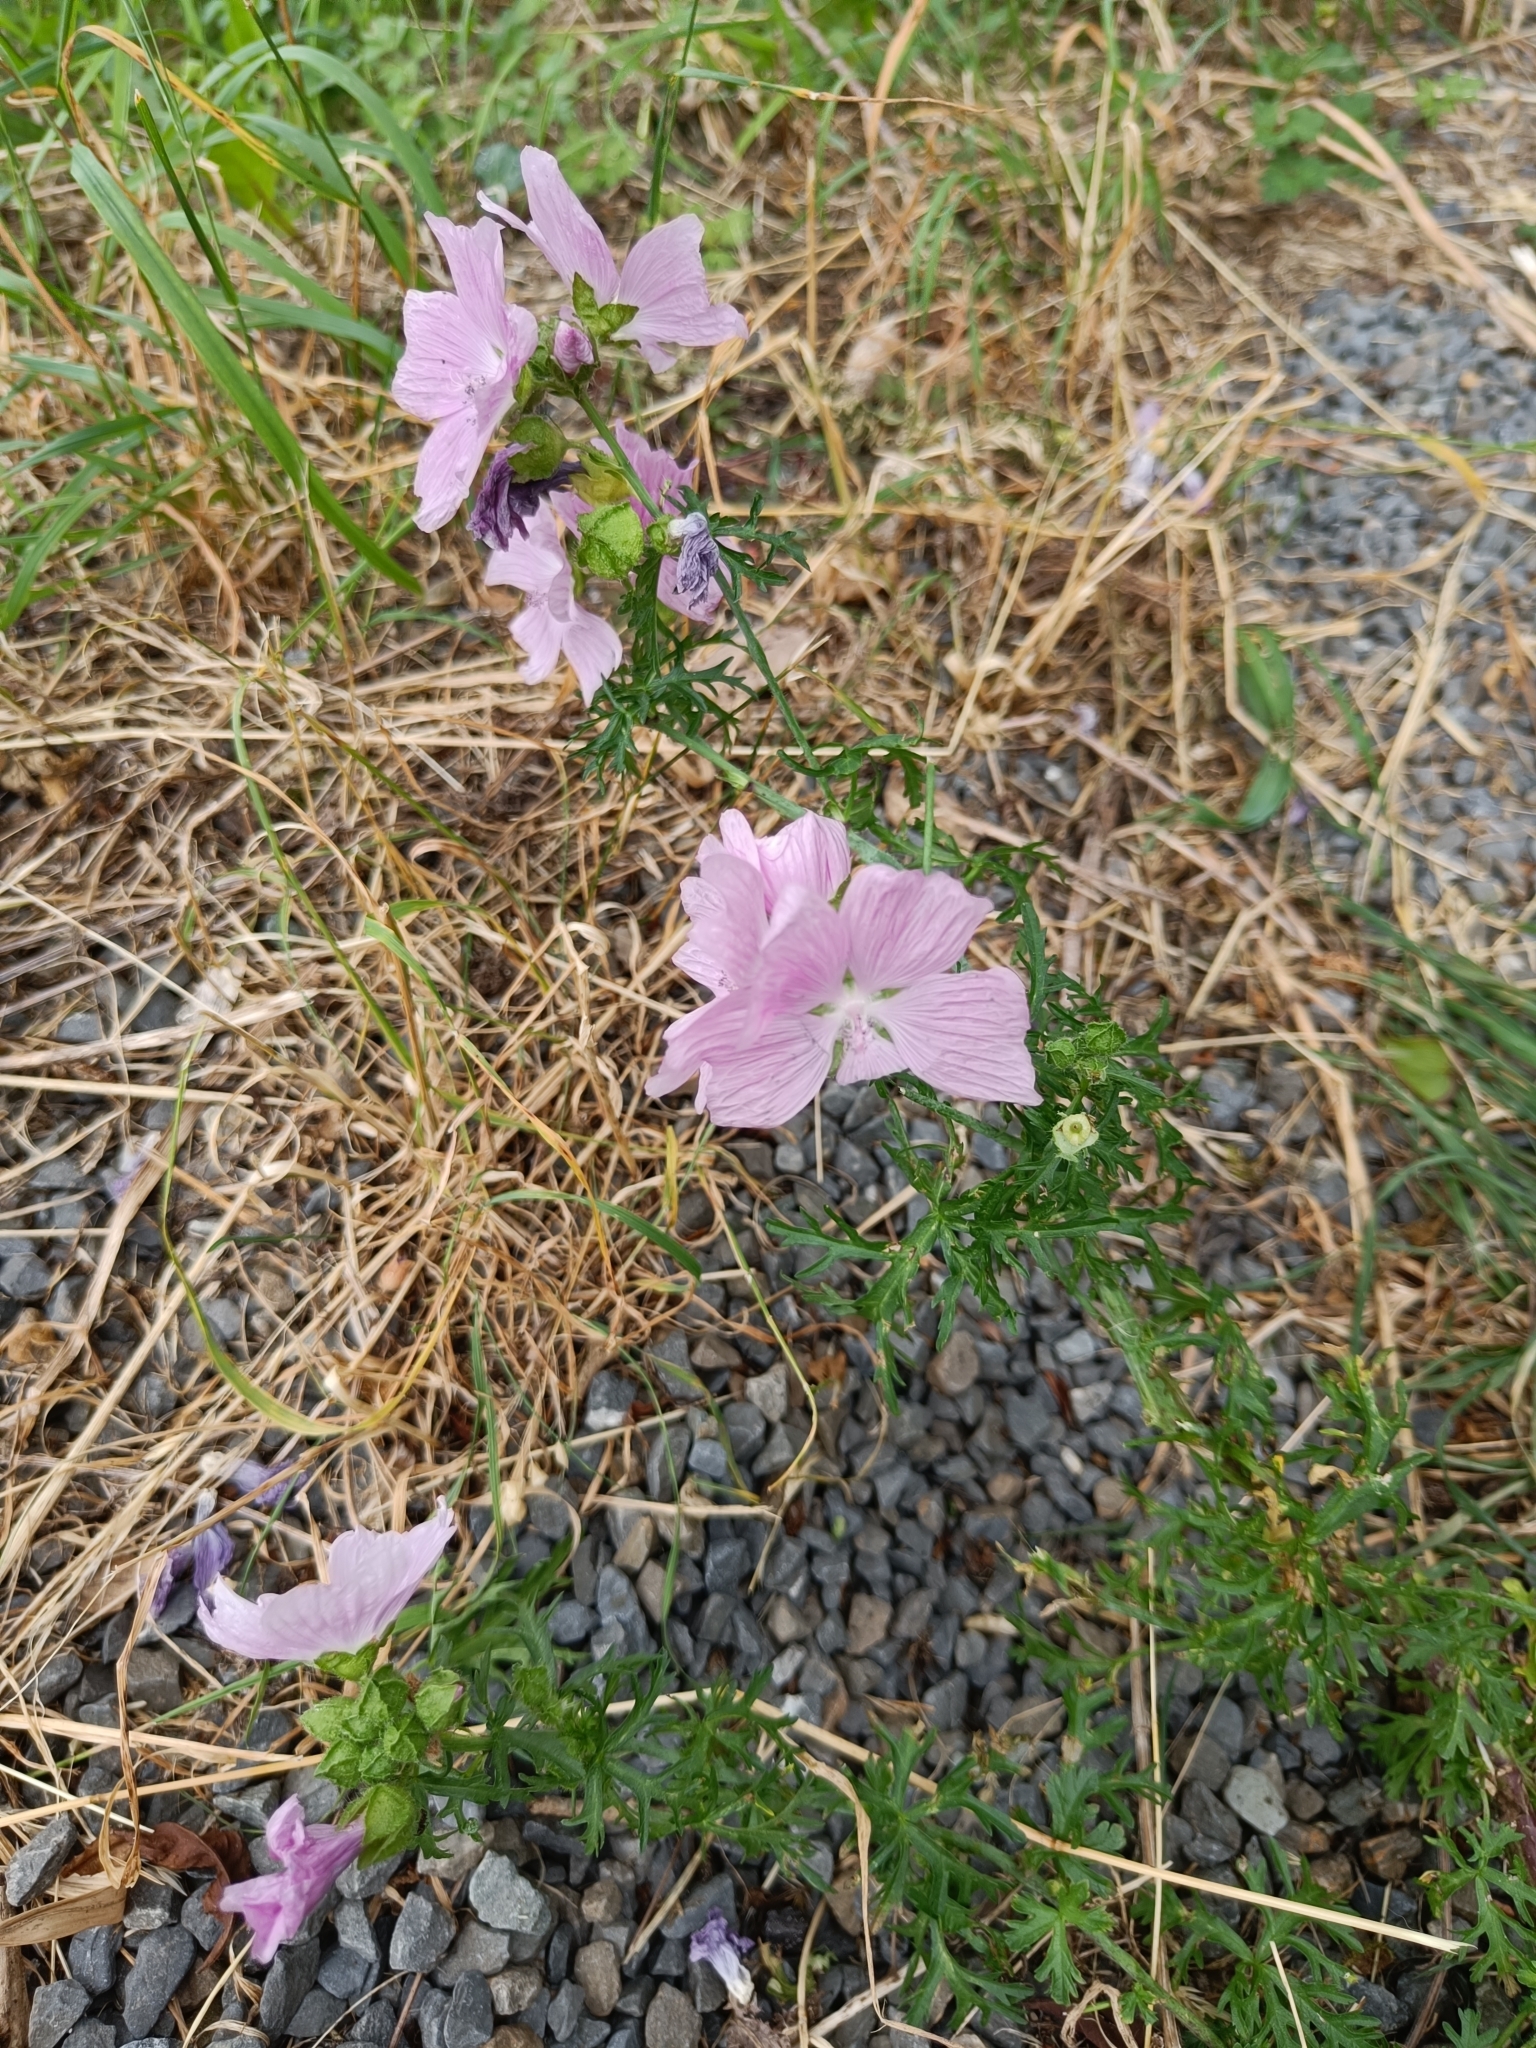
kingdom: Plantae
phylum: Tracheophyta
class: Magnoliopsida
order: Malvales
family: Malvaceae
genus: Malva
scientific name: Malva moschata
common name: Musk mallow
